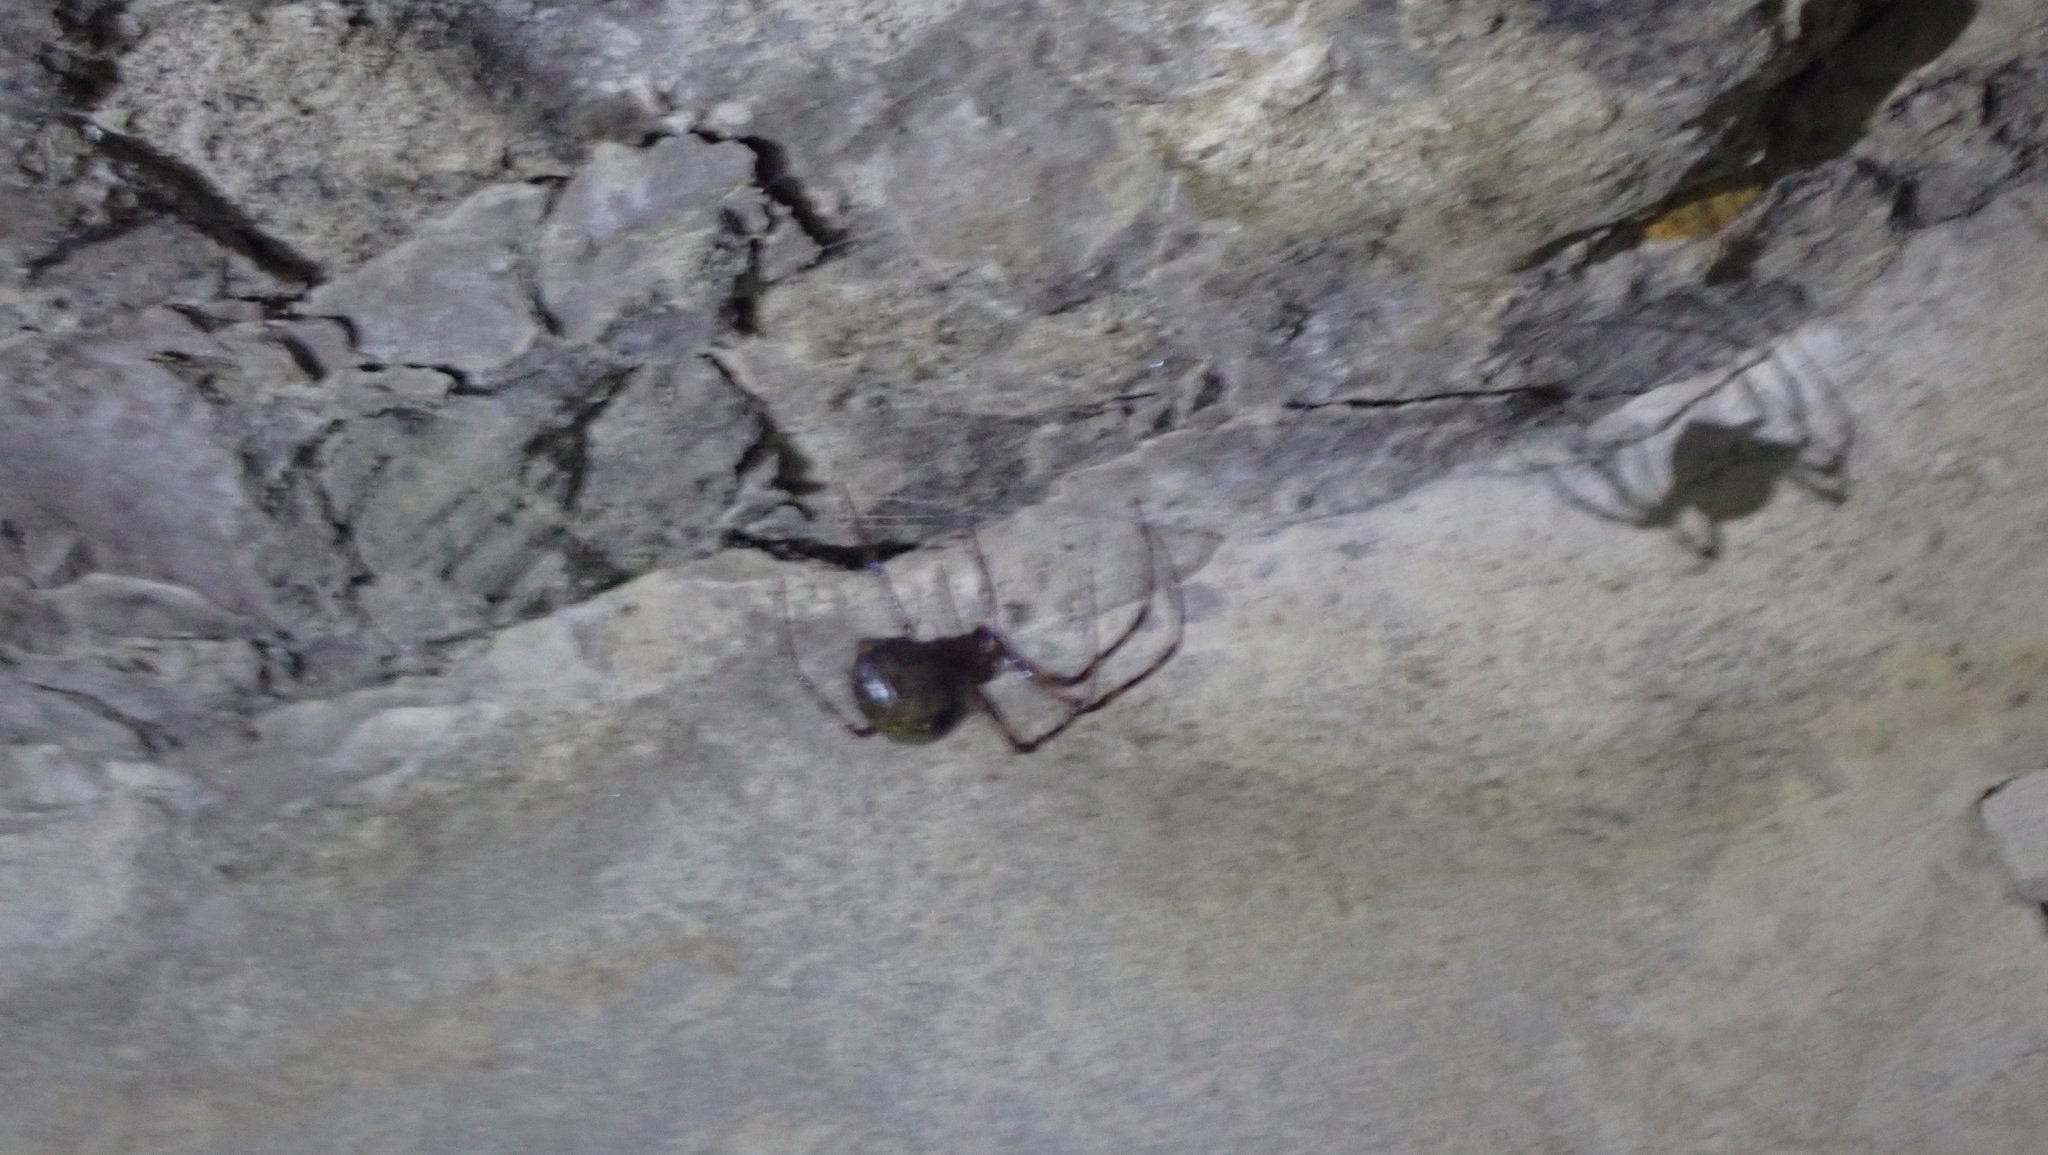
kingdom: Animalia
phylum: Arthropoda
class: Arachnida
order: Araneae
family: Tetragnathidae
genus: Meta
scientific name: Meta ovalis
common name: Eastern cave long-jawed spider
